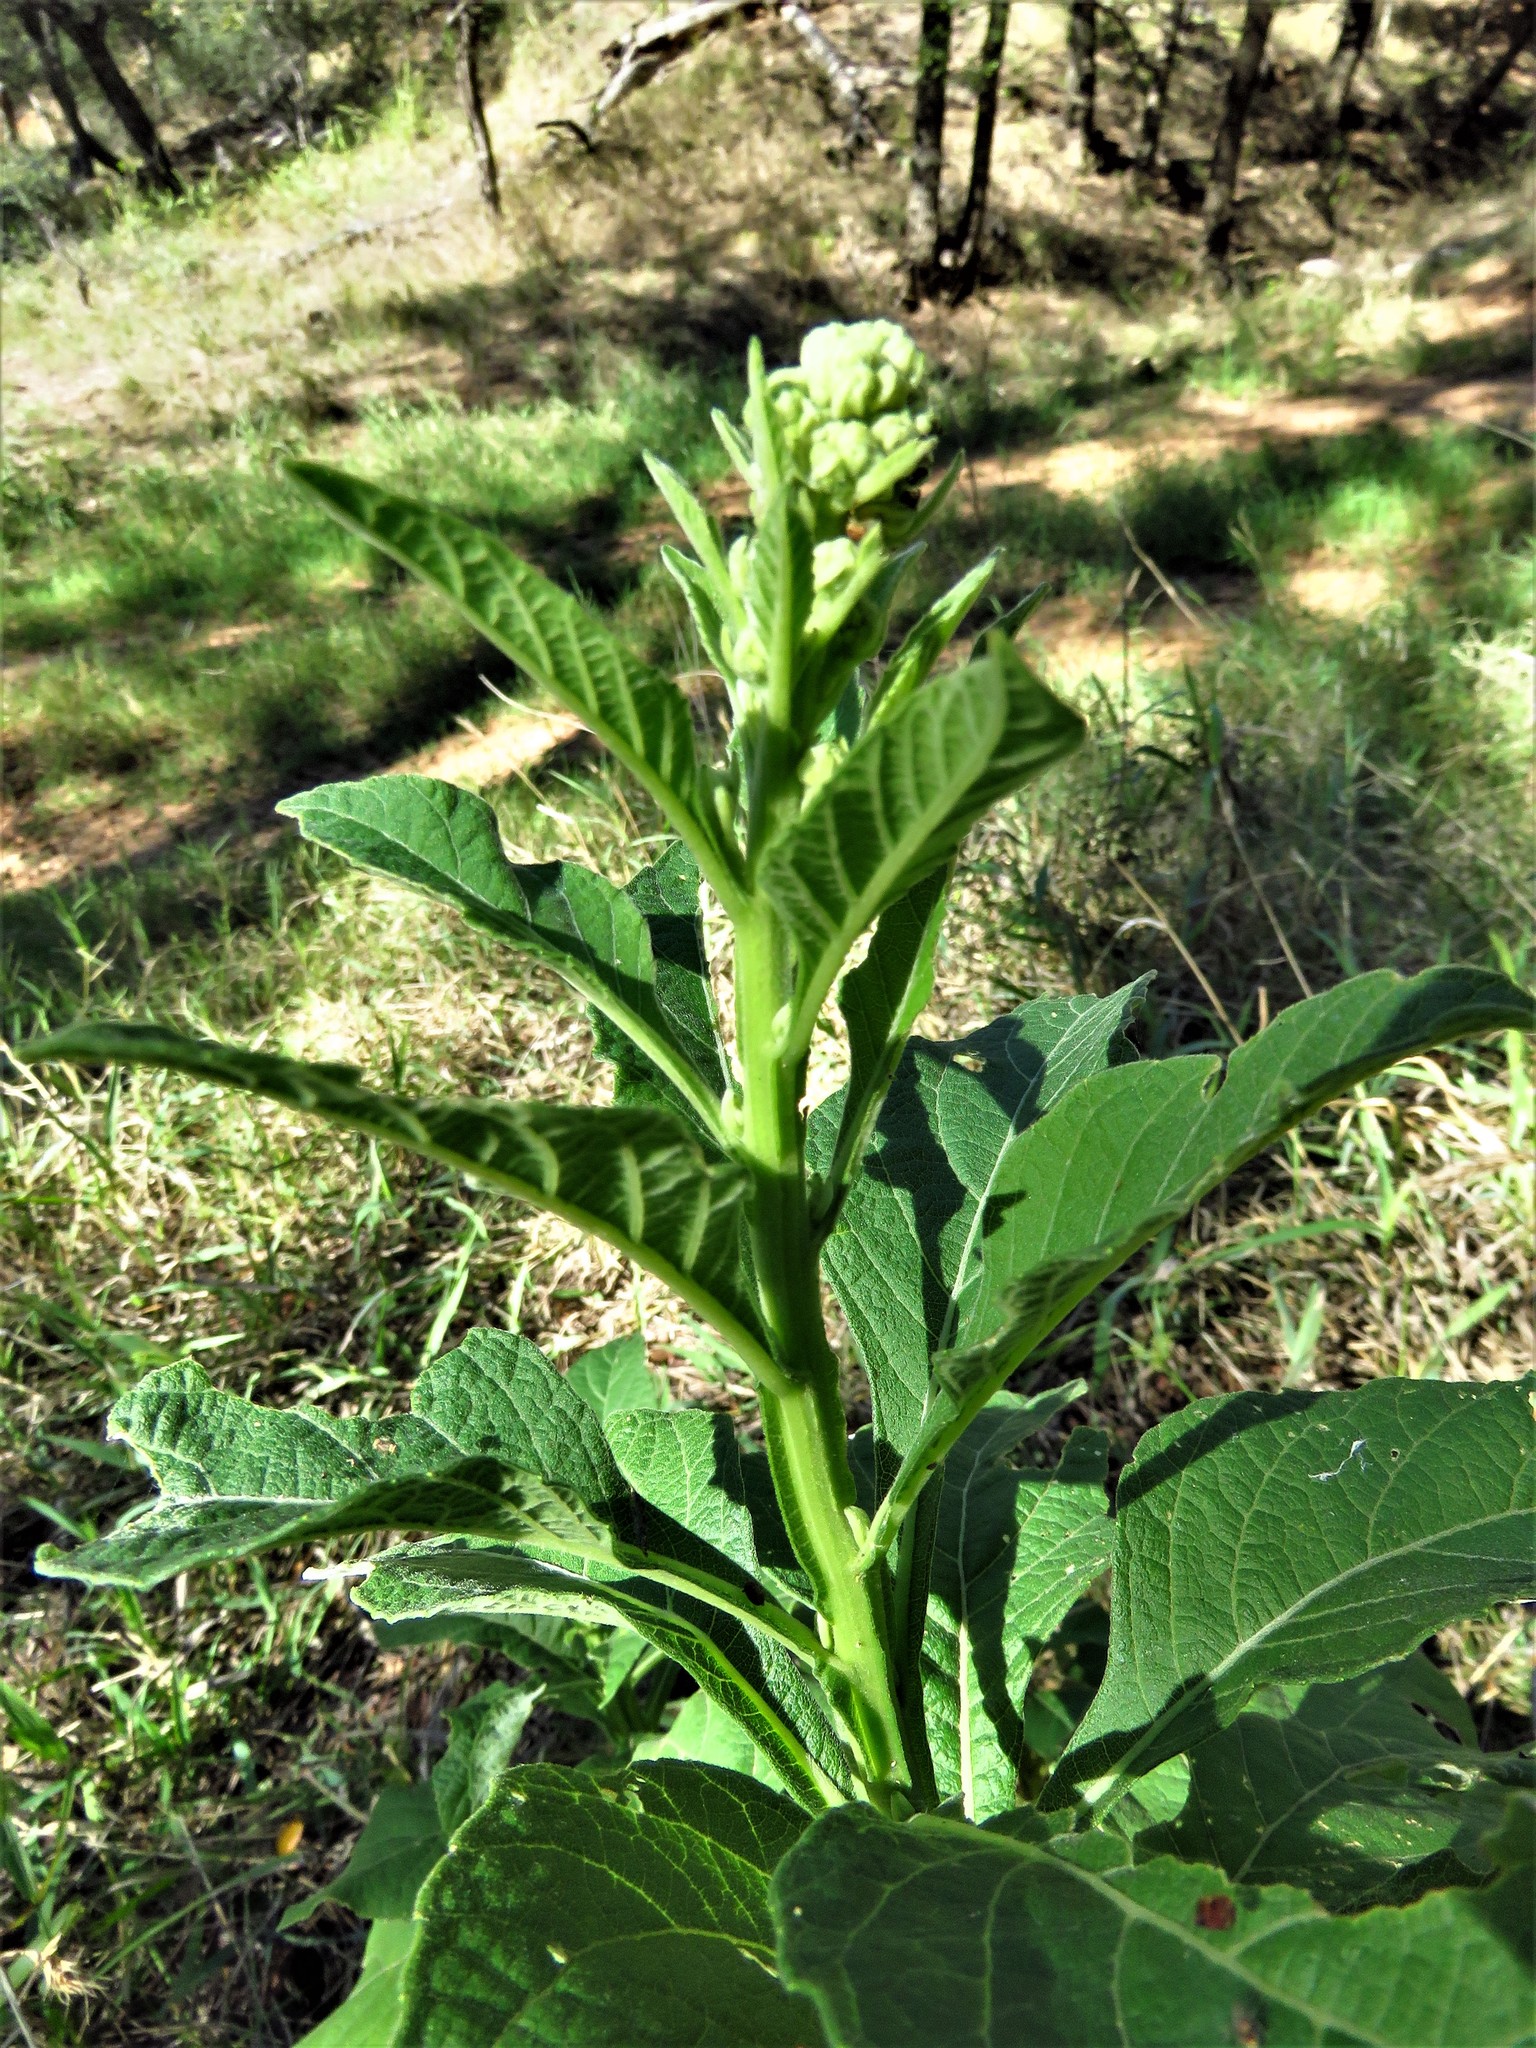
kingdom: Plantae
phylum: Tracheophyta
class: Magnoliopsida
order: Asterales
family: Asteraceae
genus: Verbesina
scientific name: Verbesina virginica
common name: Frostweed
